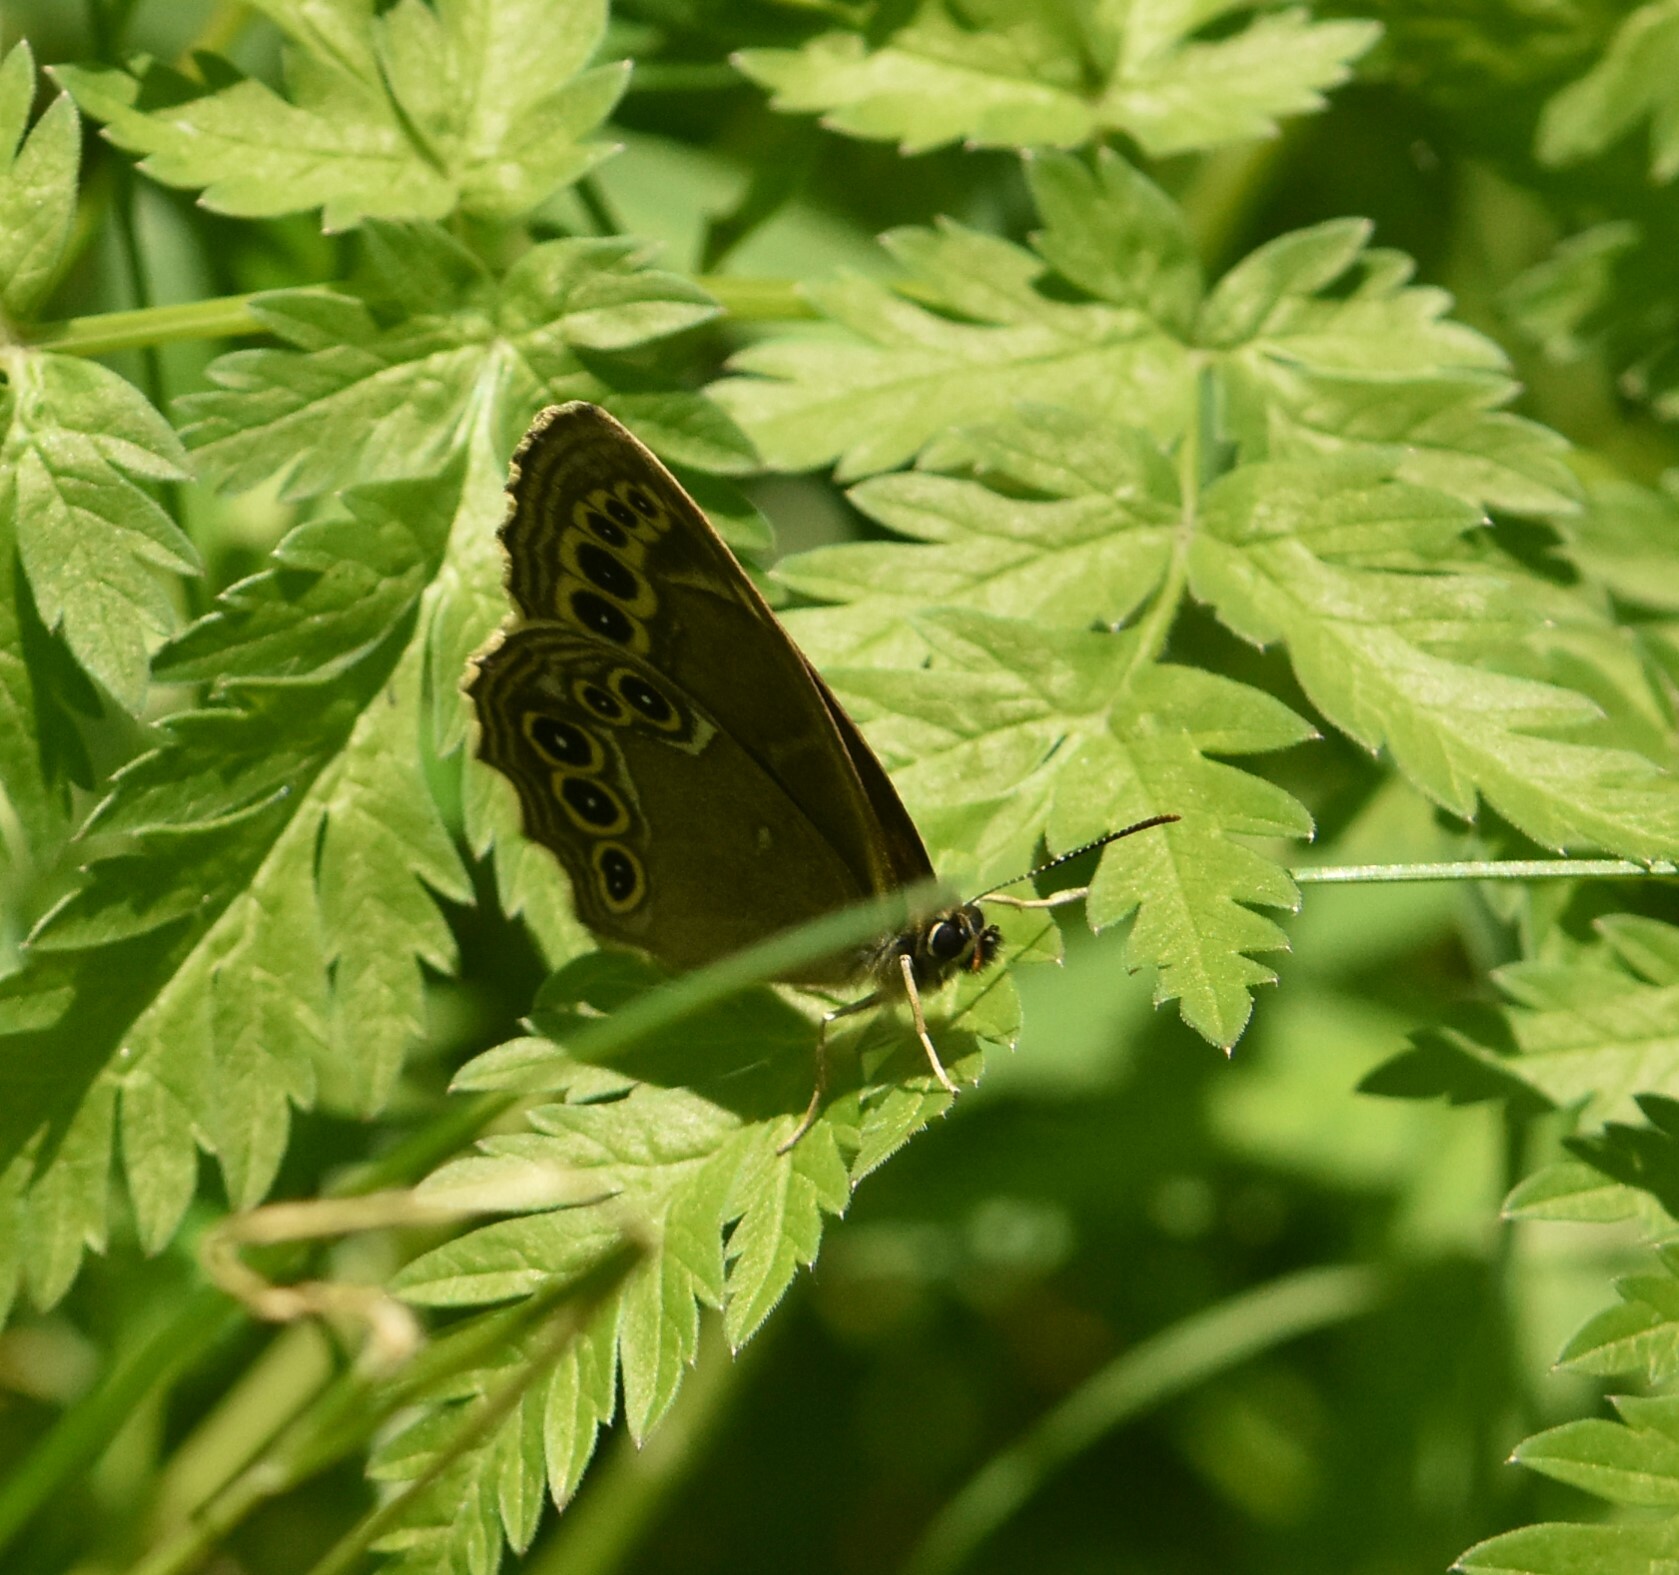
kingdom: Animalia
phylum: Arthropoda
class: Insecta
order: Lepidoptera
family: Nymphalidae
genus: Pararge
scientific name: Pararge Lopinga achine
